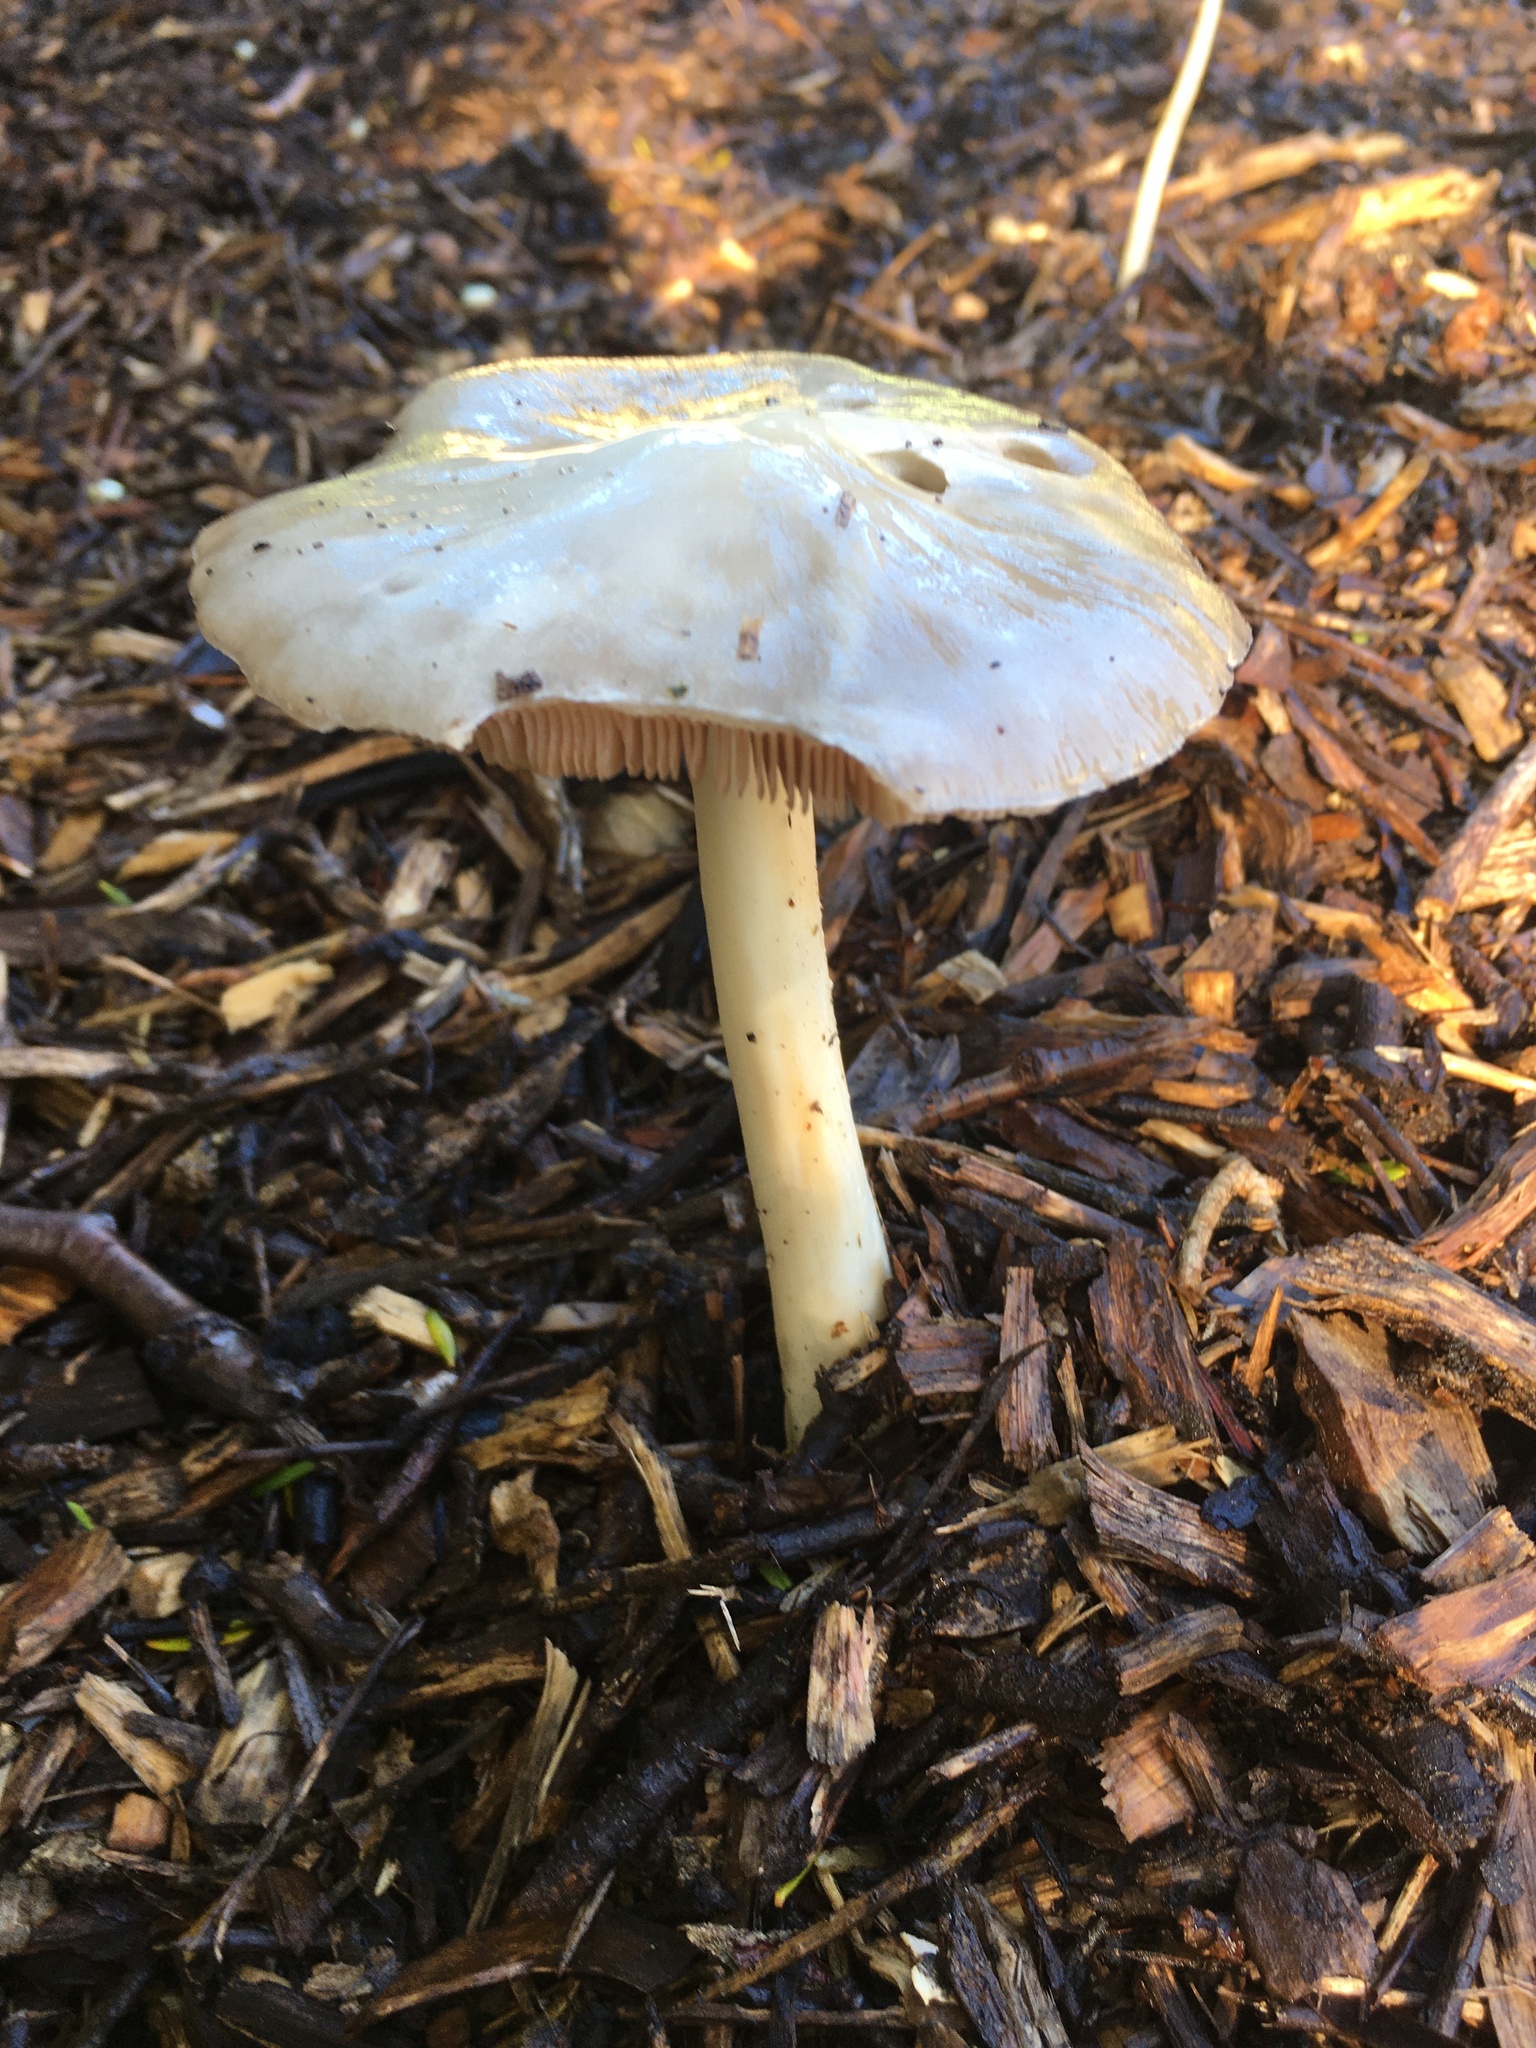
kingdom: Fungi
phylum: Basidiomycota
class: Agaricomycetes
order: Agaricales
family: Pluteaceae
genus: Volvopluteus
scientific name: Volvopluteus gloiocephalus
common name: Stubble rosegill
